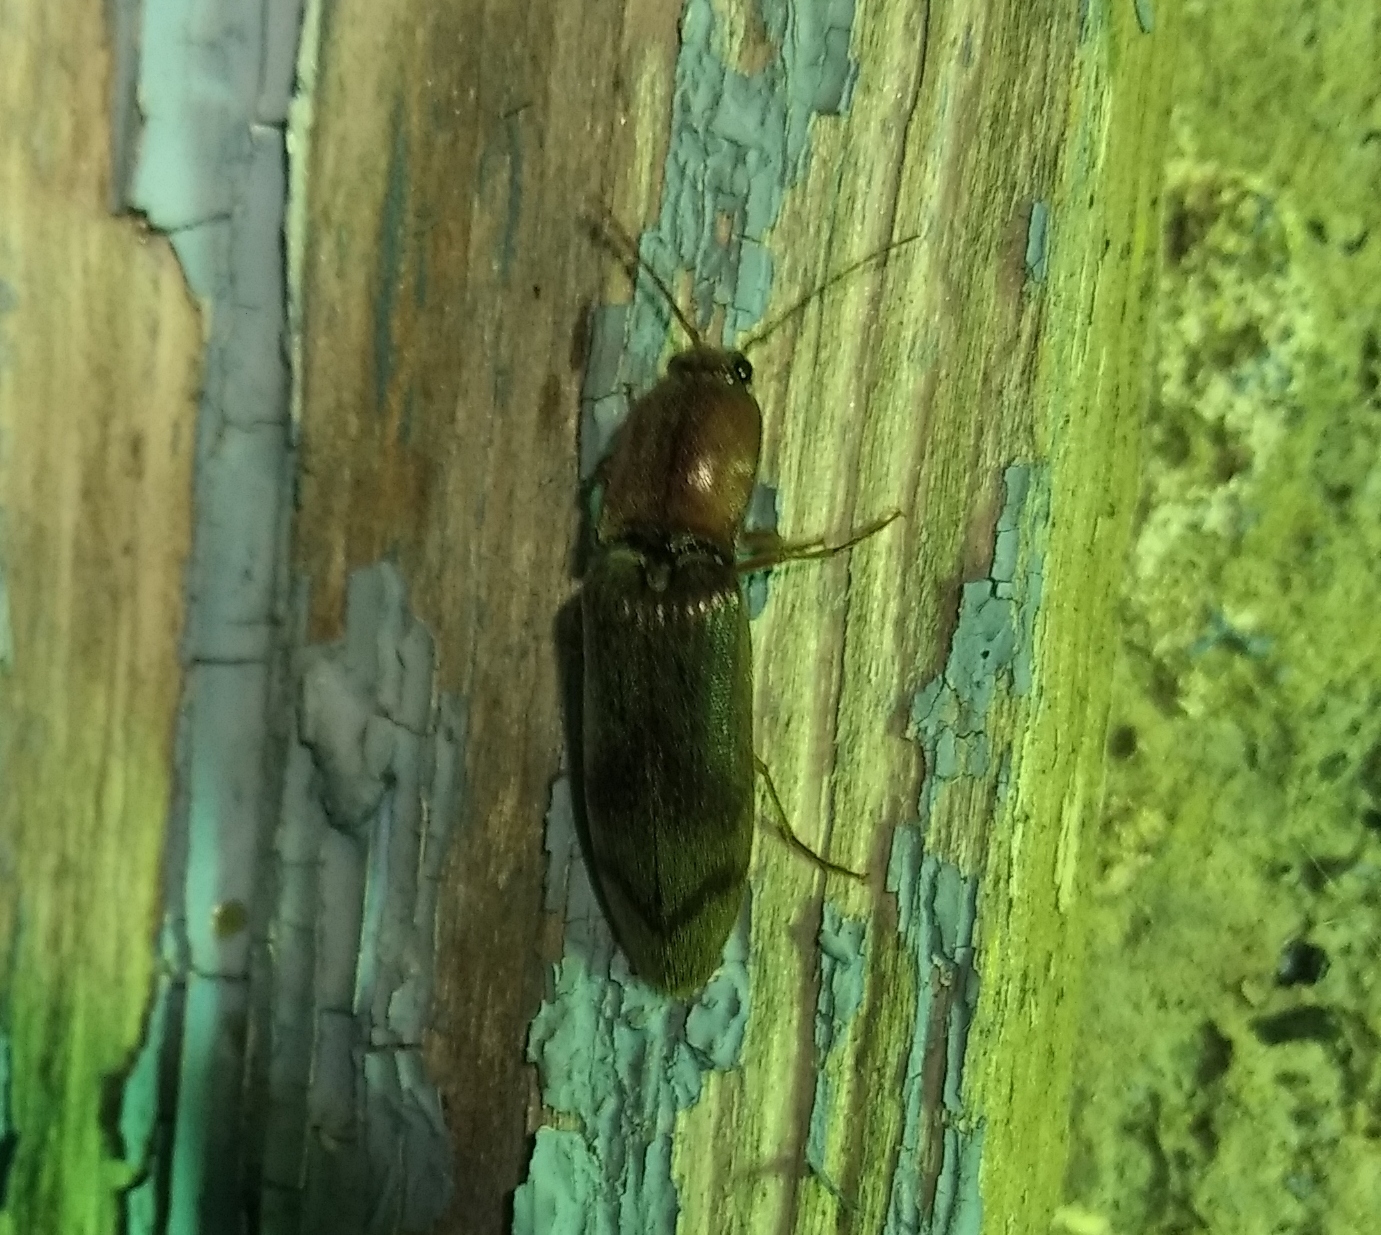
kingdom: Animalia
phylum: Arthropoda
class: Insecta
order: Coleoptera
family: Elateridae
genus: Stenagostus
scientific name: Stenagostus rhombeus
